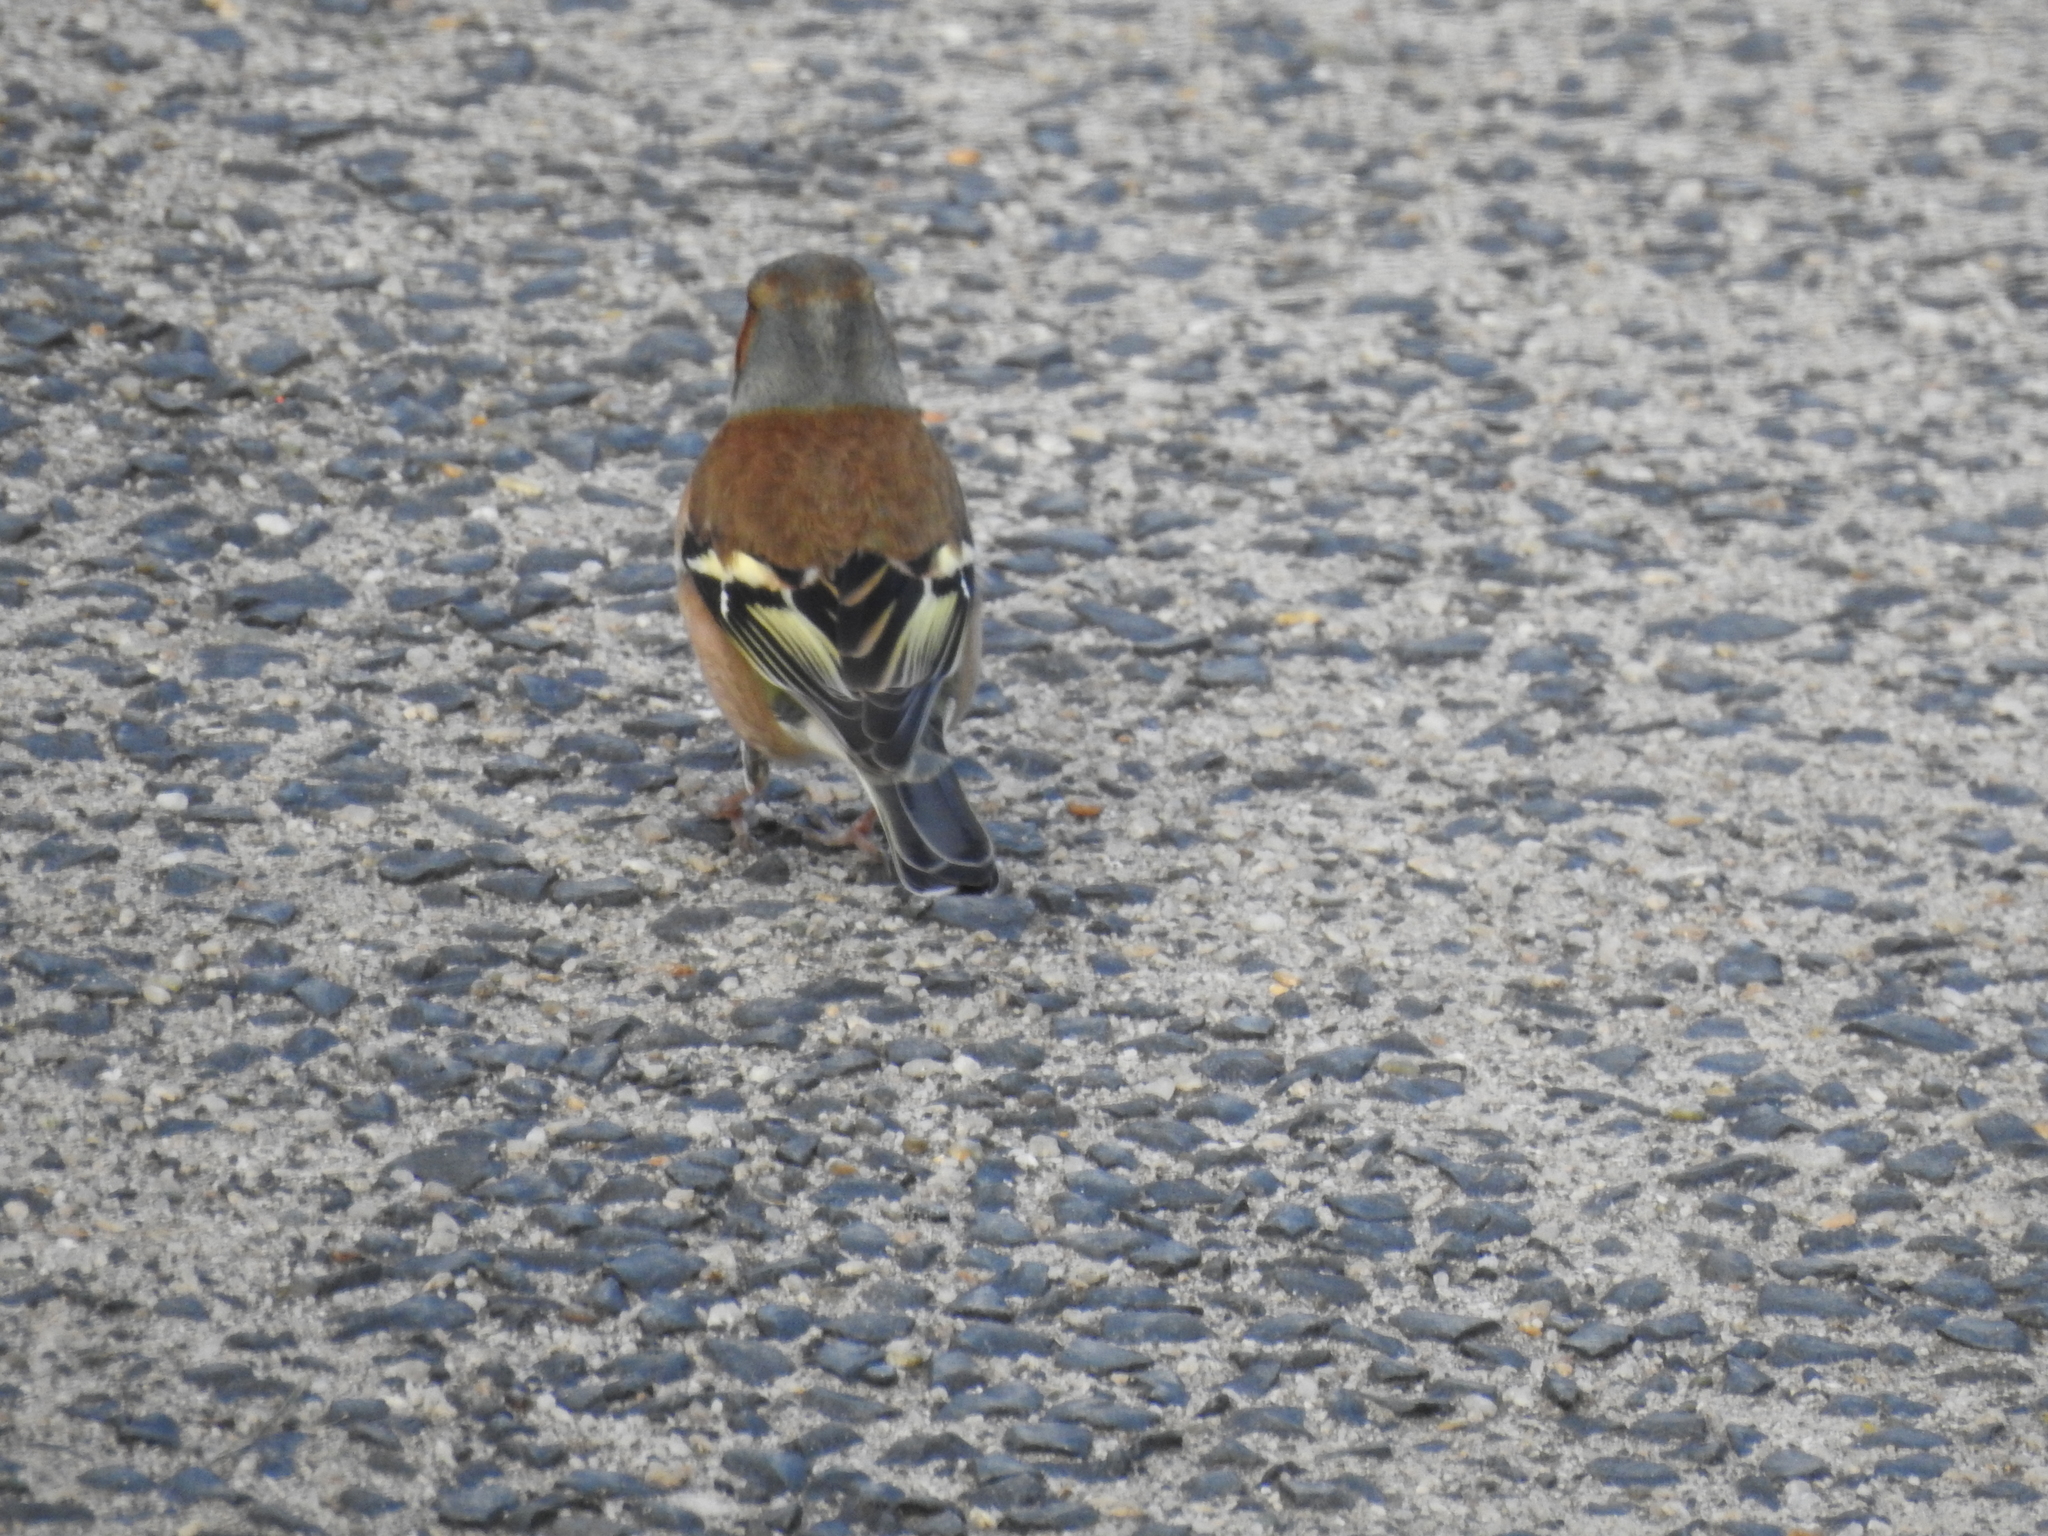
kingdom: Animalia
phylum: Chordata
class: Aves
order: Passeriformes
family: Fringillidae
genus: Fringilla
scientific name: Fringilla coelebs
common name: Common chaffinch
